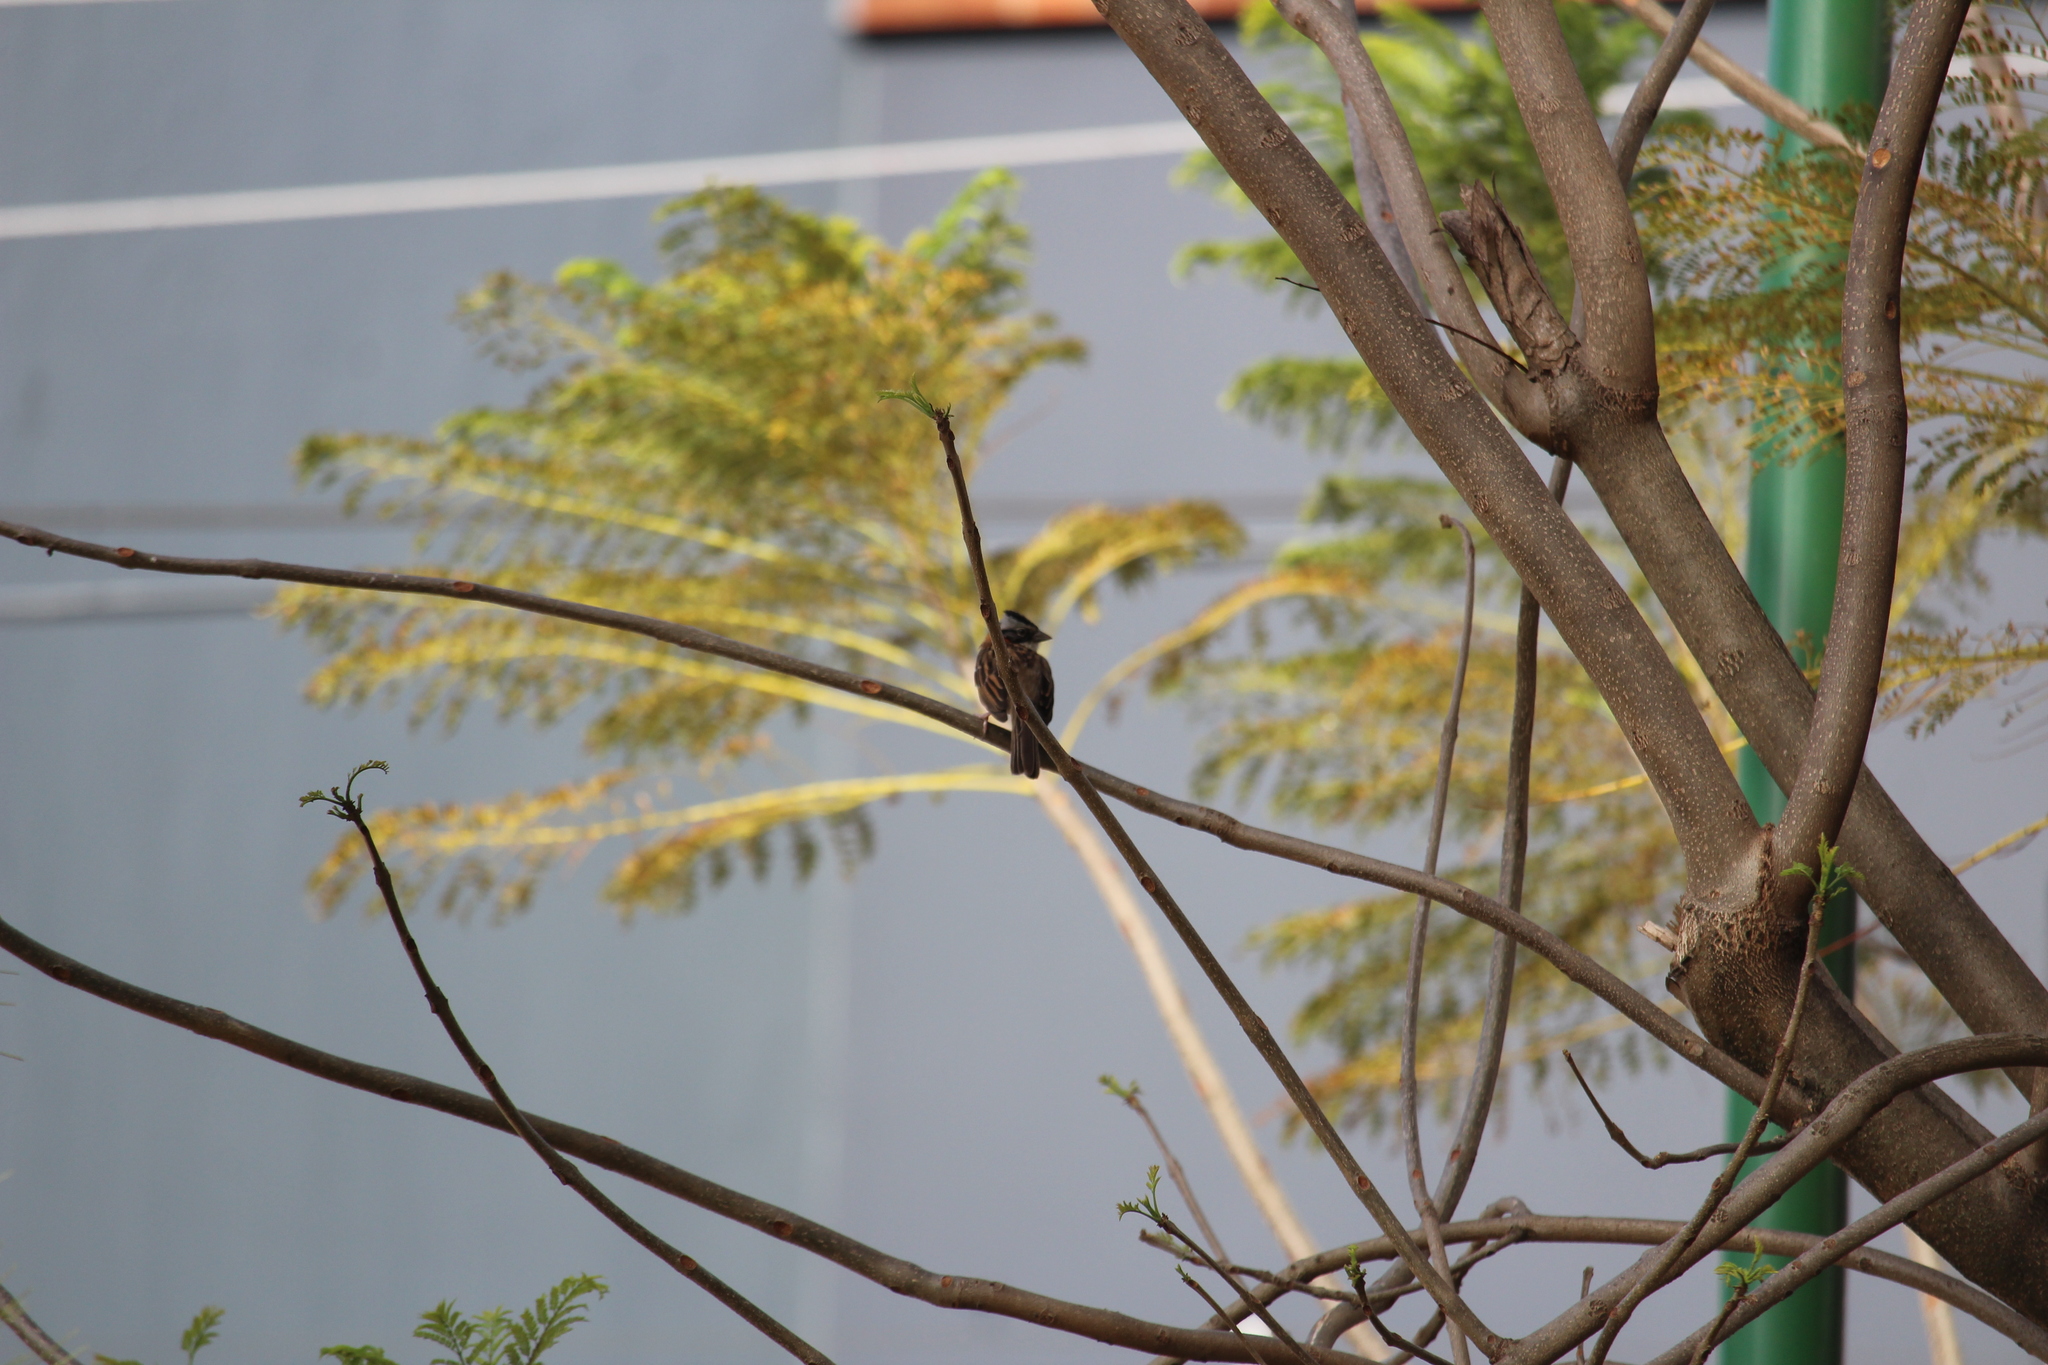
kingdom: Animalia
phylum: Chordata
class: Aves
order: Passeriformes
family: Passerellidae
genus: Zonotrichia
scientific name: Zonotrichia capensis
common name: Rufous-collared sparrow
